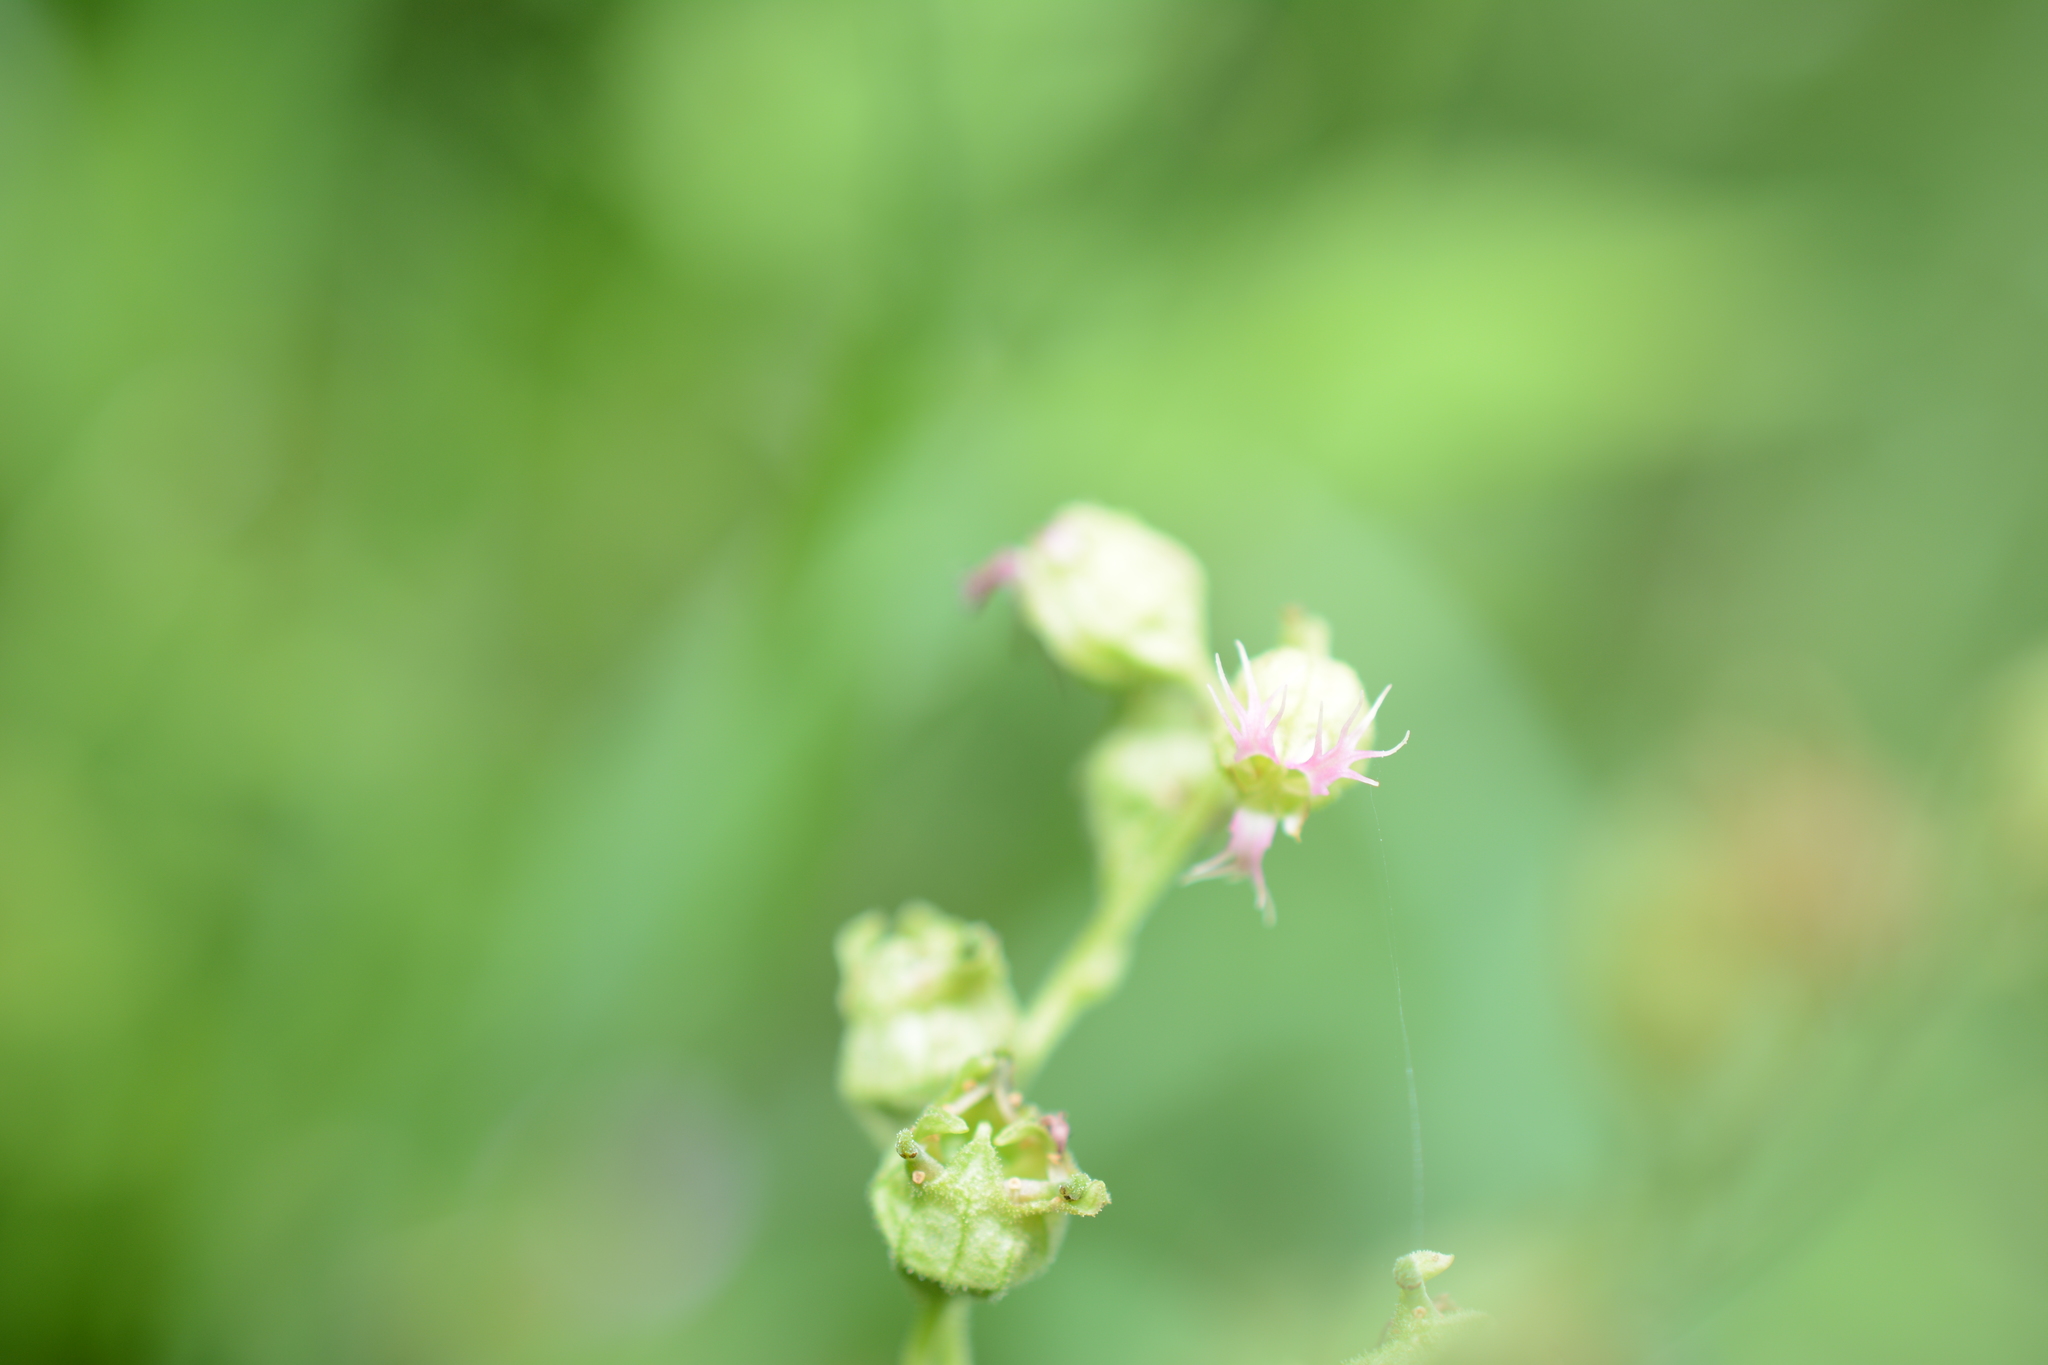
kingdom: Plantae
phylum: Tracheophyta
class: Magnoliopsida
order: Saxifragales
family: Saxifragaceae
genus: Tellima
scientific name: Tellima grandiflora
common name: Fringecups
